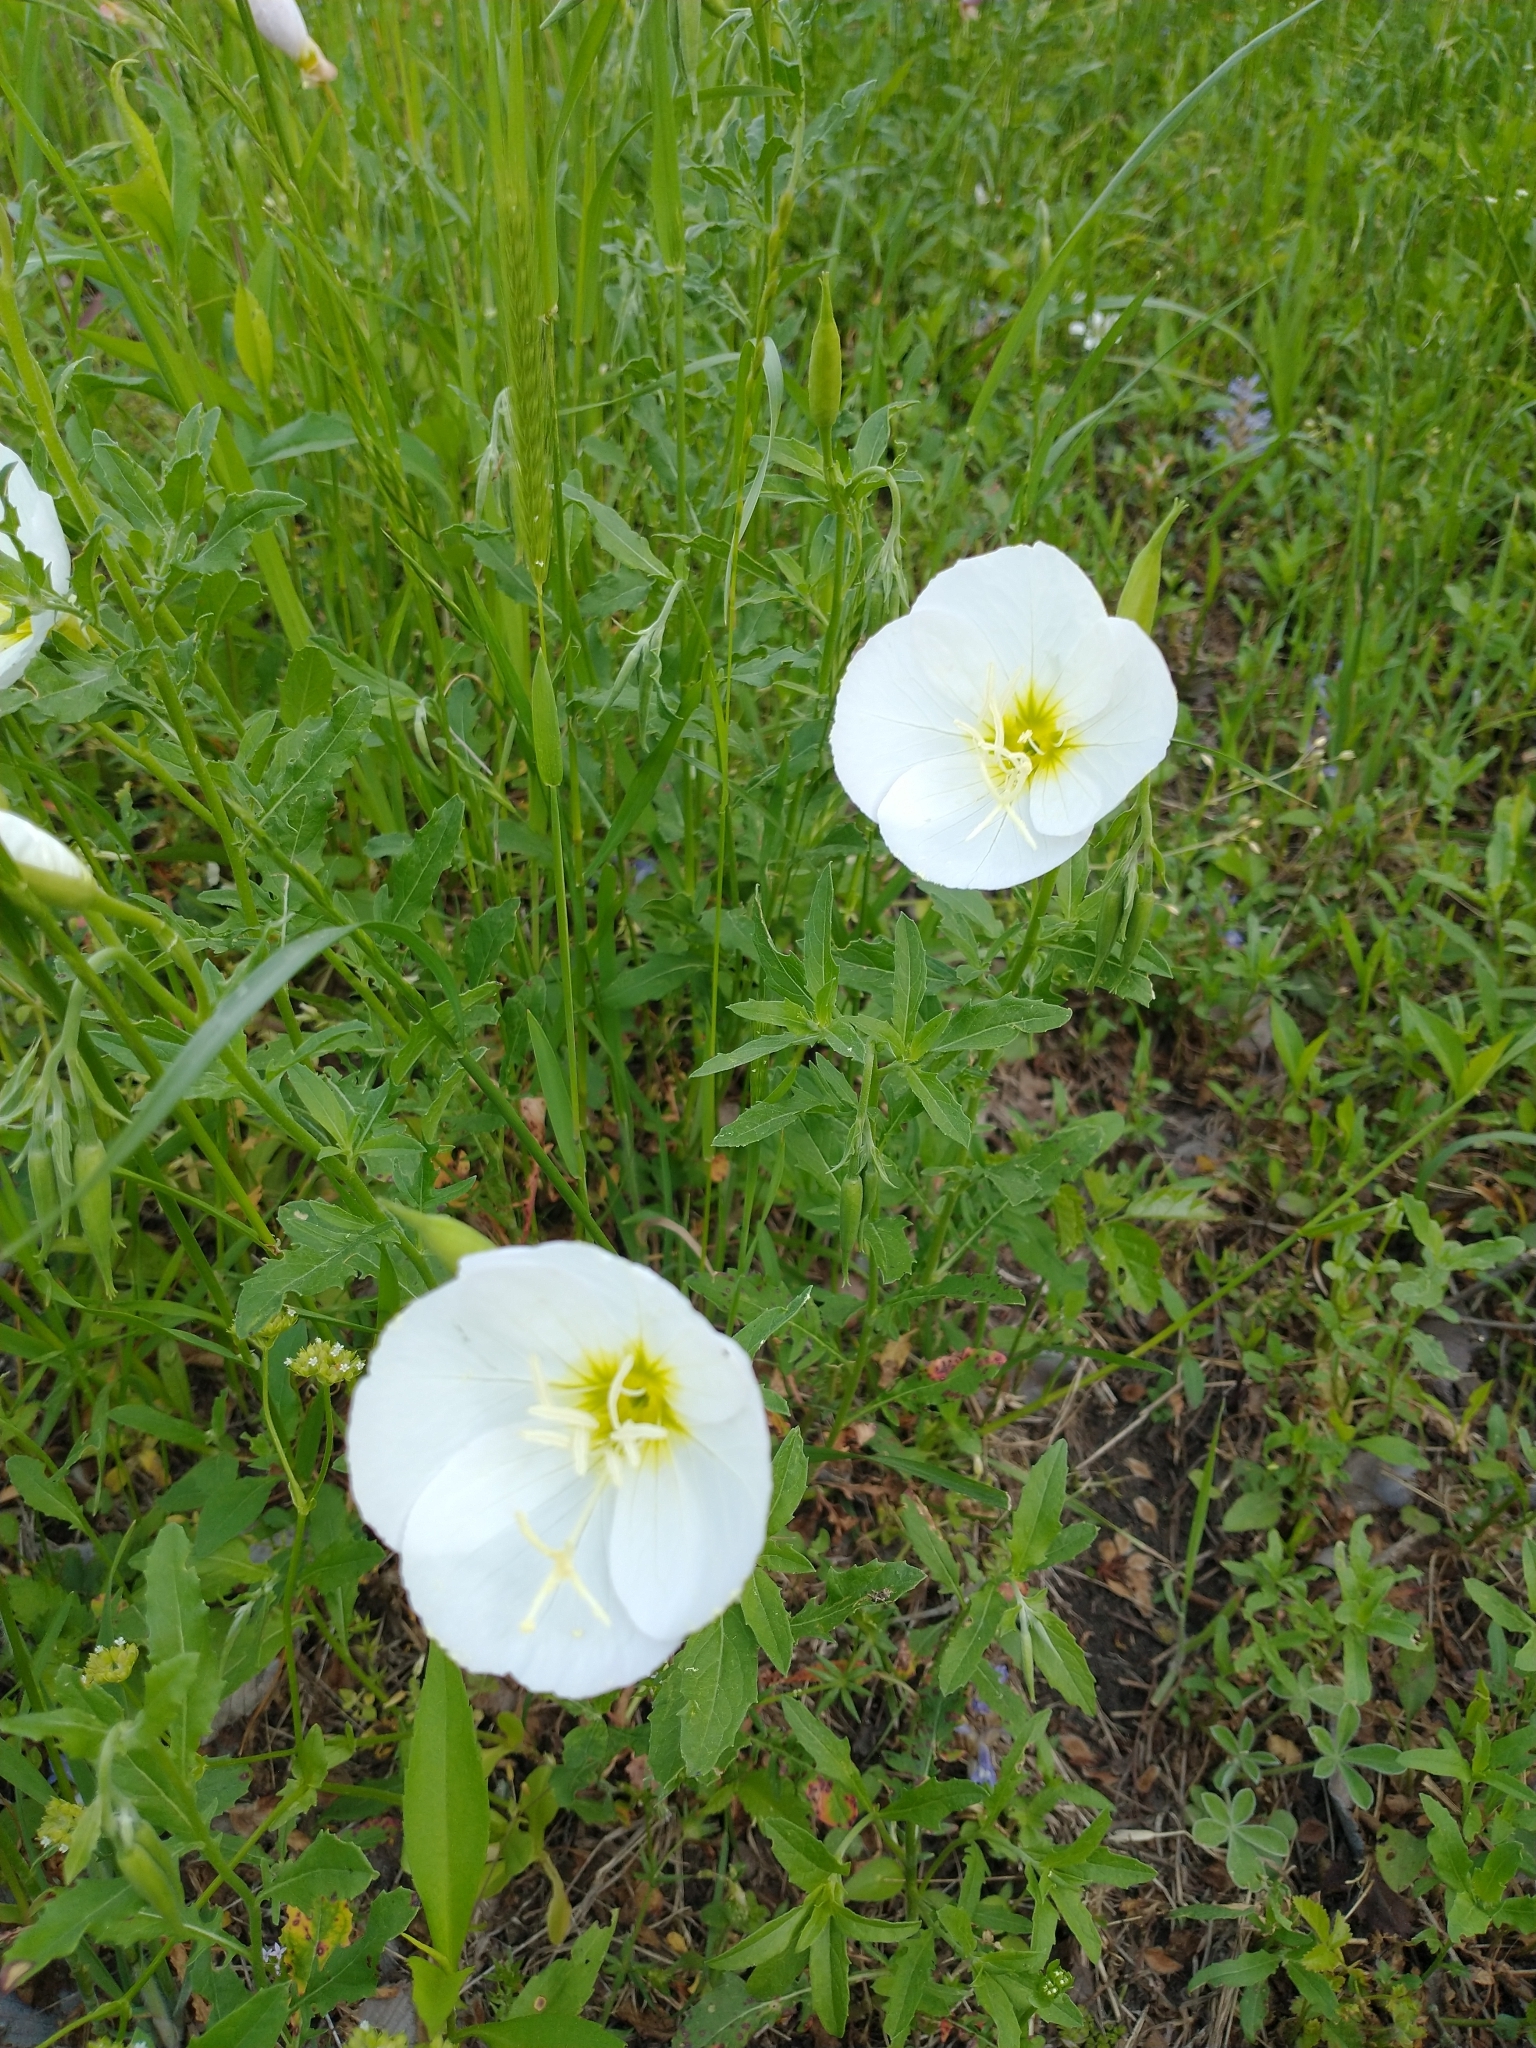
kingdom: Plantae
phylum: Tracheophyta
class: Magnoliopsida
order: Myrtales
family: Onagraceae
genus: Oenothera
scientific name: Oenothera speciosa
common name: White evening-primrose
